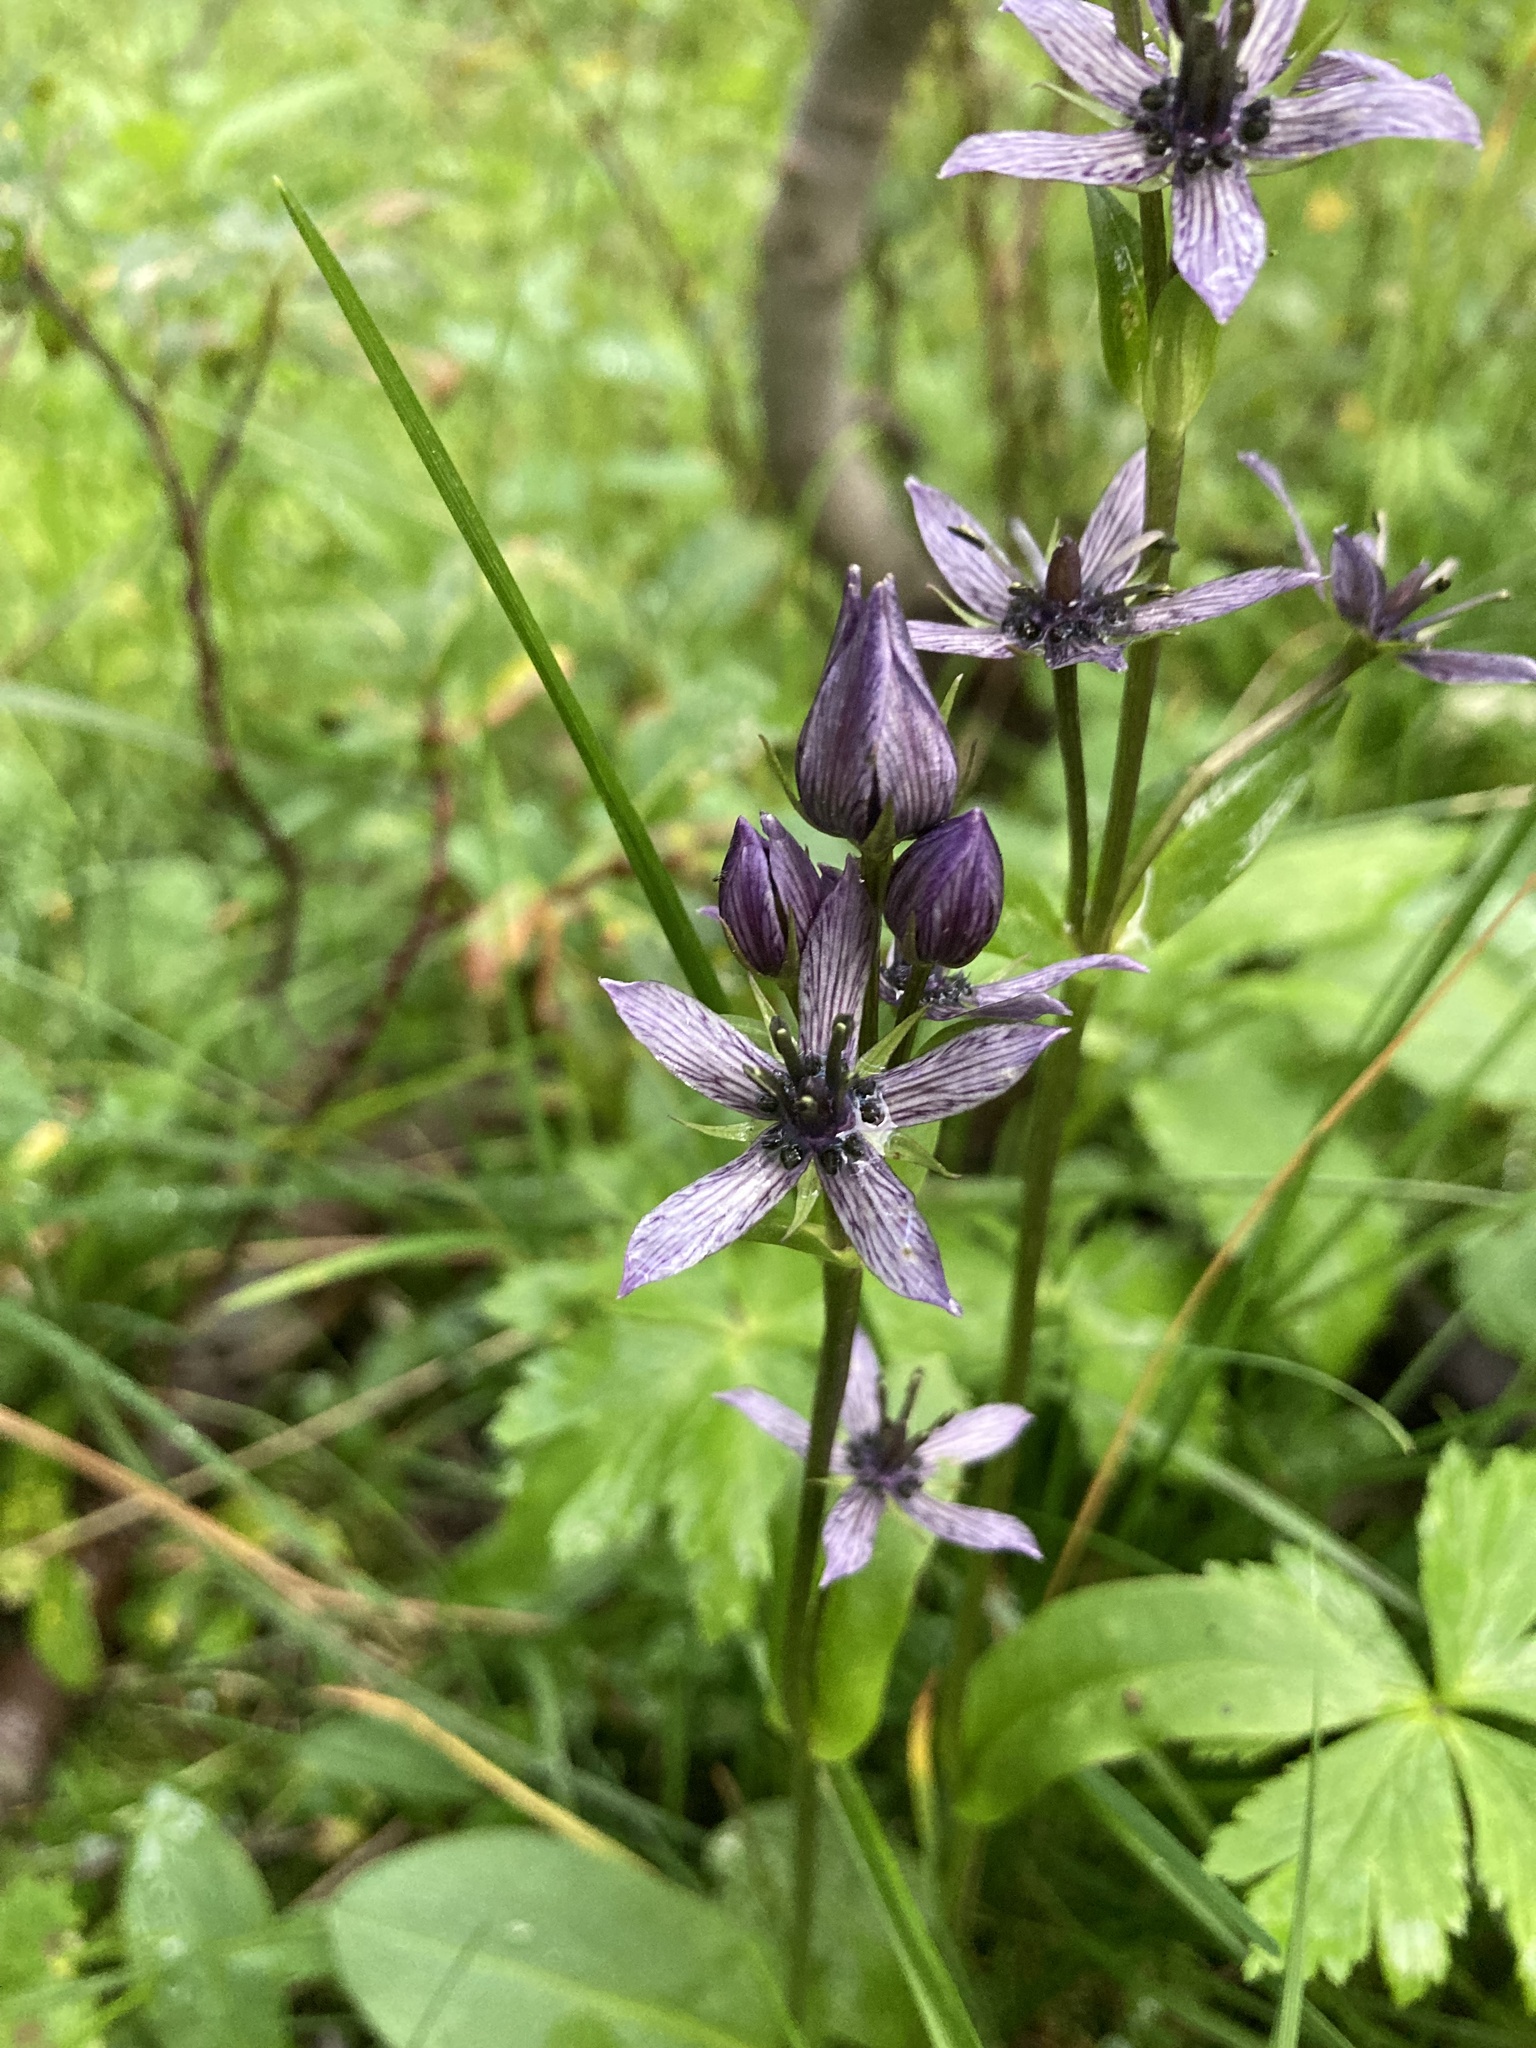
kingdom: Plantae
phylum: Tracheophyta
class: Magnoliopsida
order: Gentianales
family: Gentianaceae
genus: Swertia
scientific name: Swertia perennis
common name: Alpine bog swertia
